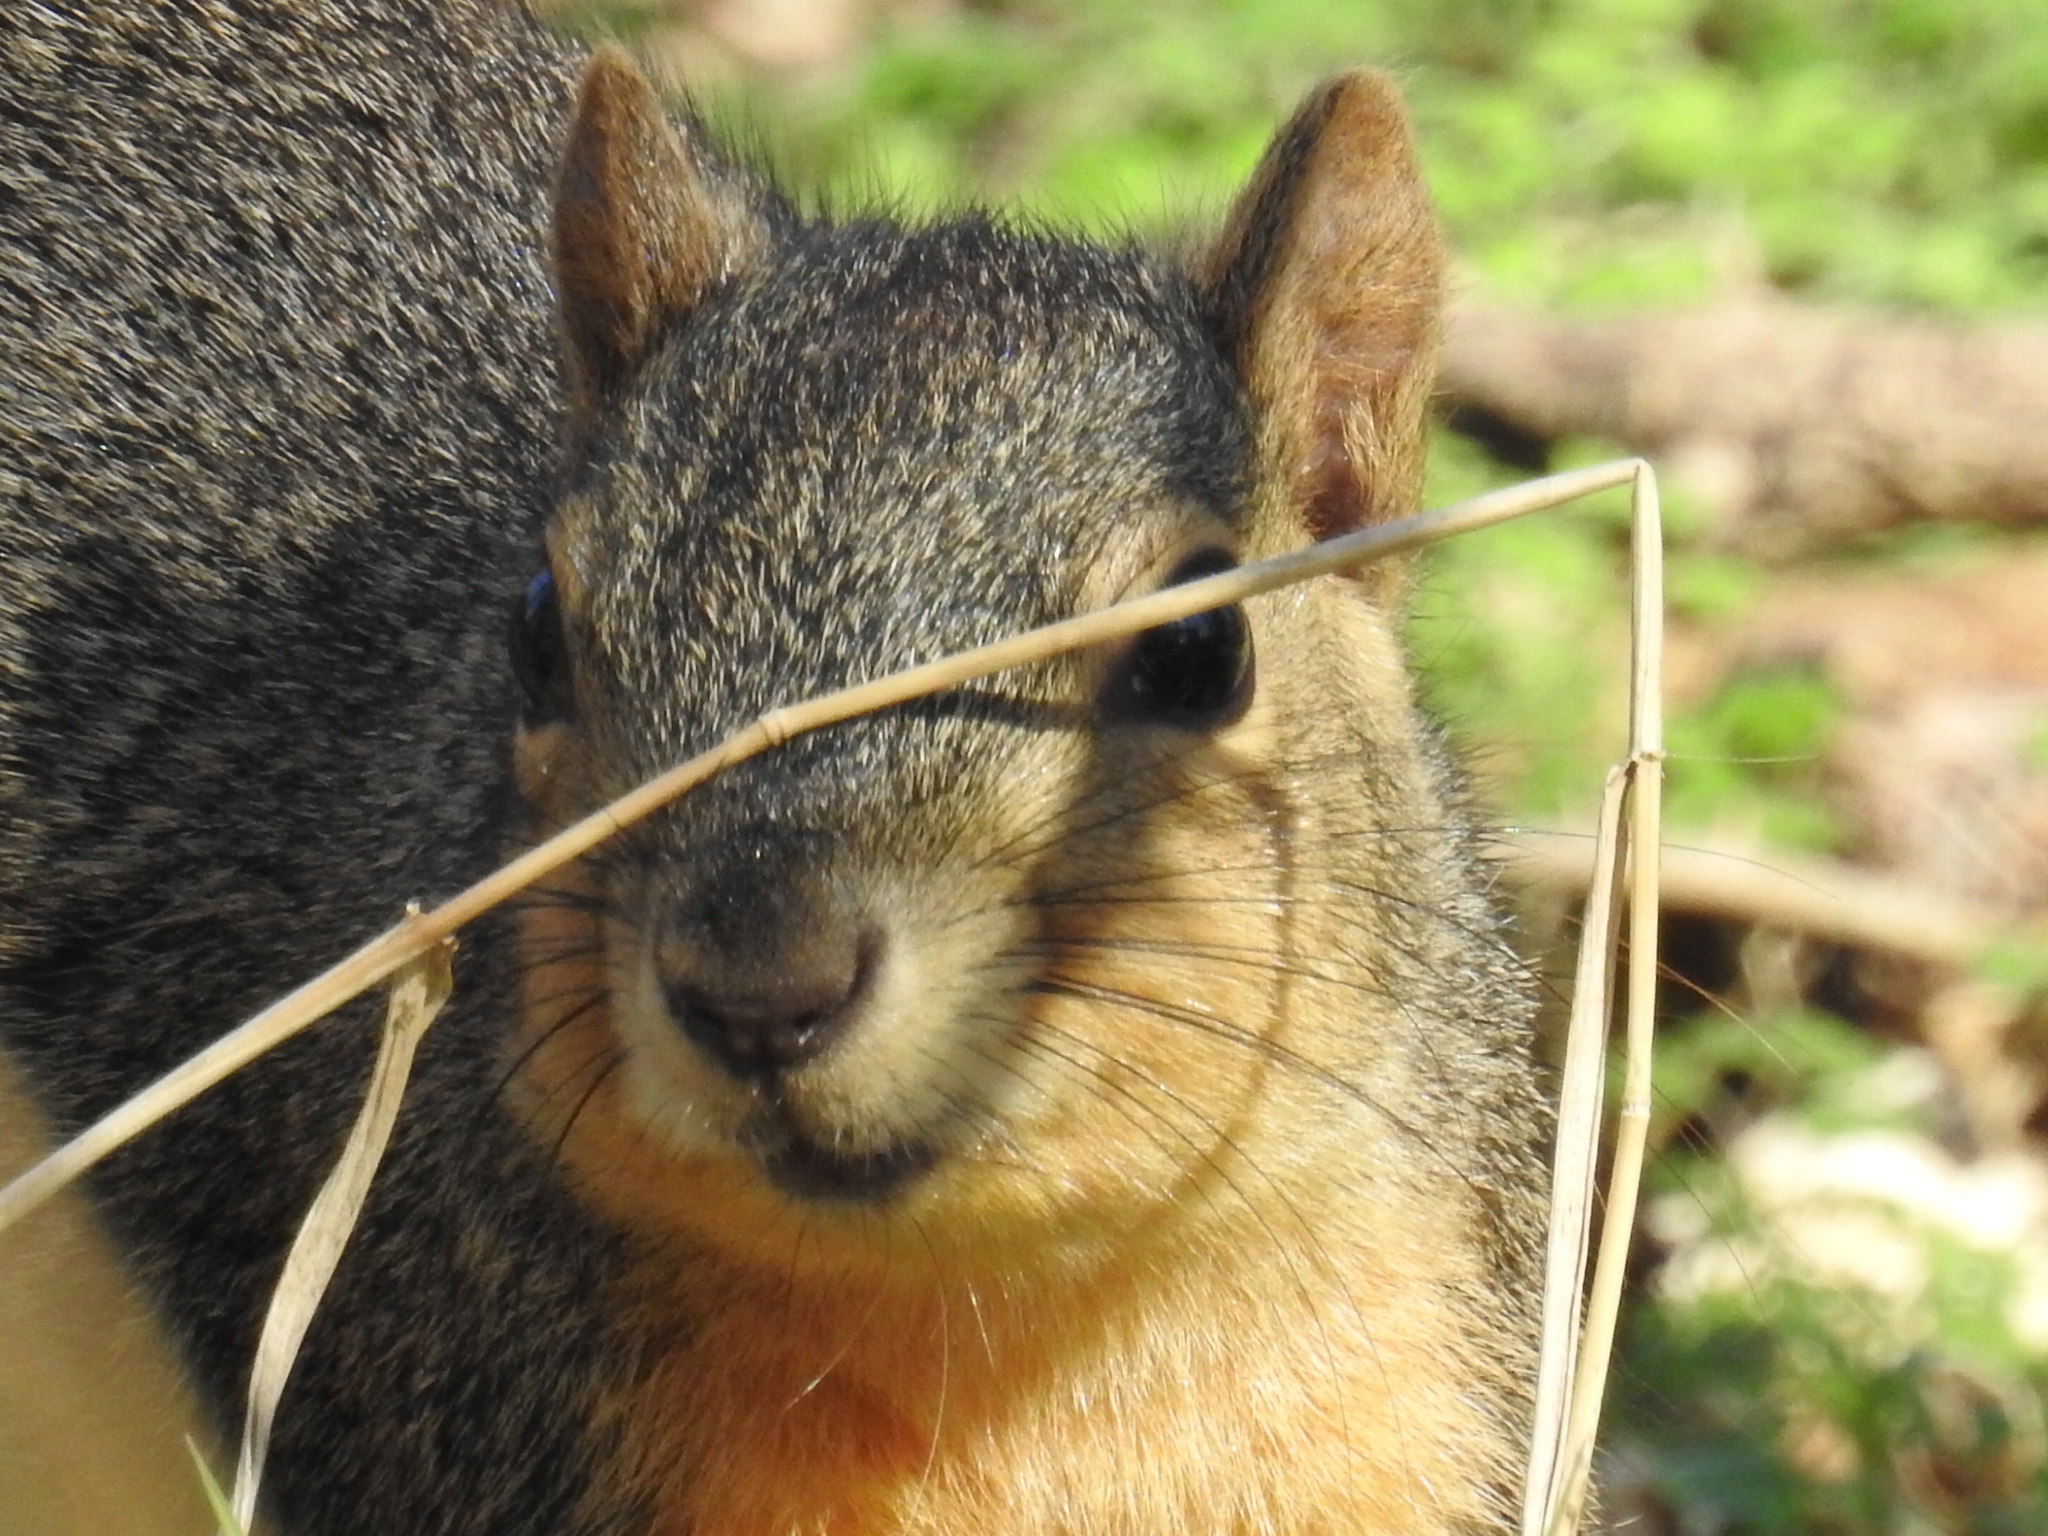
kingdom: Animalia
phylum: Chordata
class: Mammalia
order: Rodentia
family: Sciuridae
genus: Sciurus
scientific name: Sciurus niger
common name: Fox squirrel
